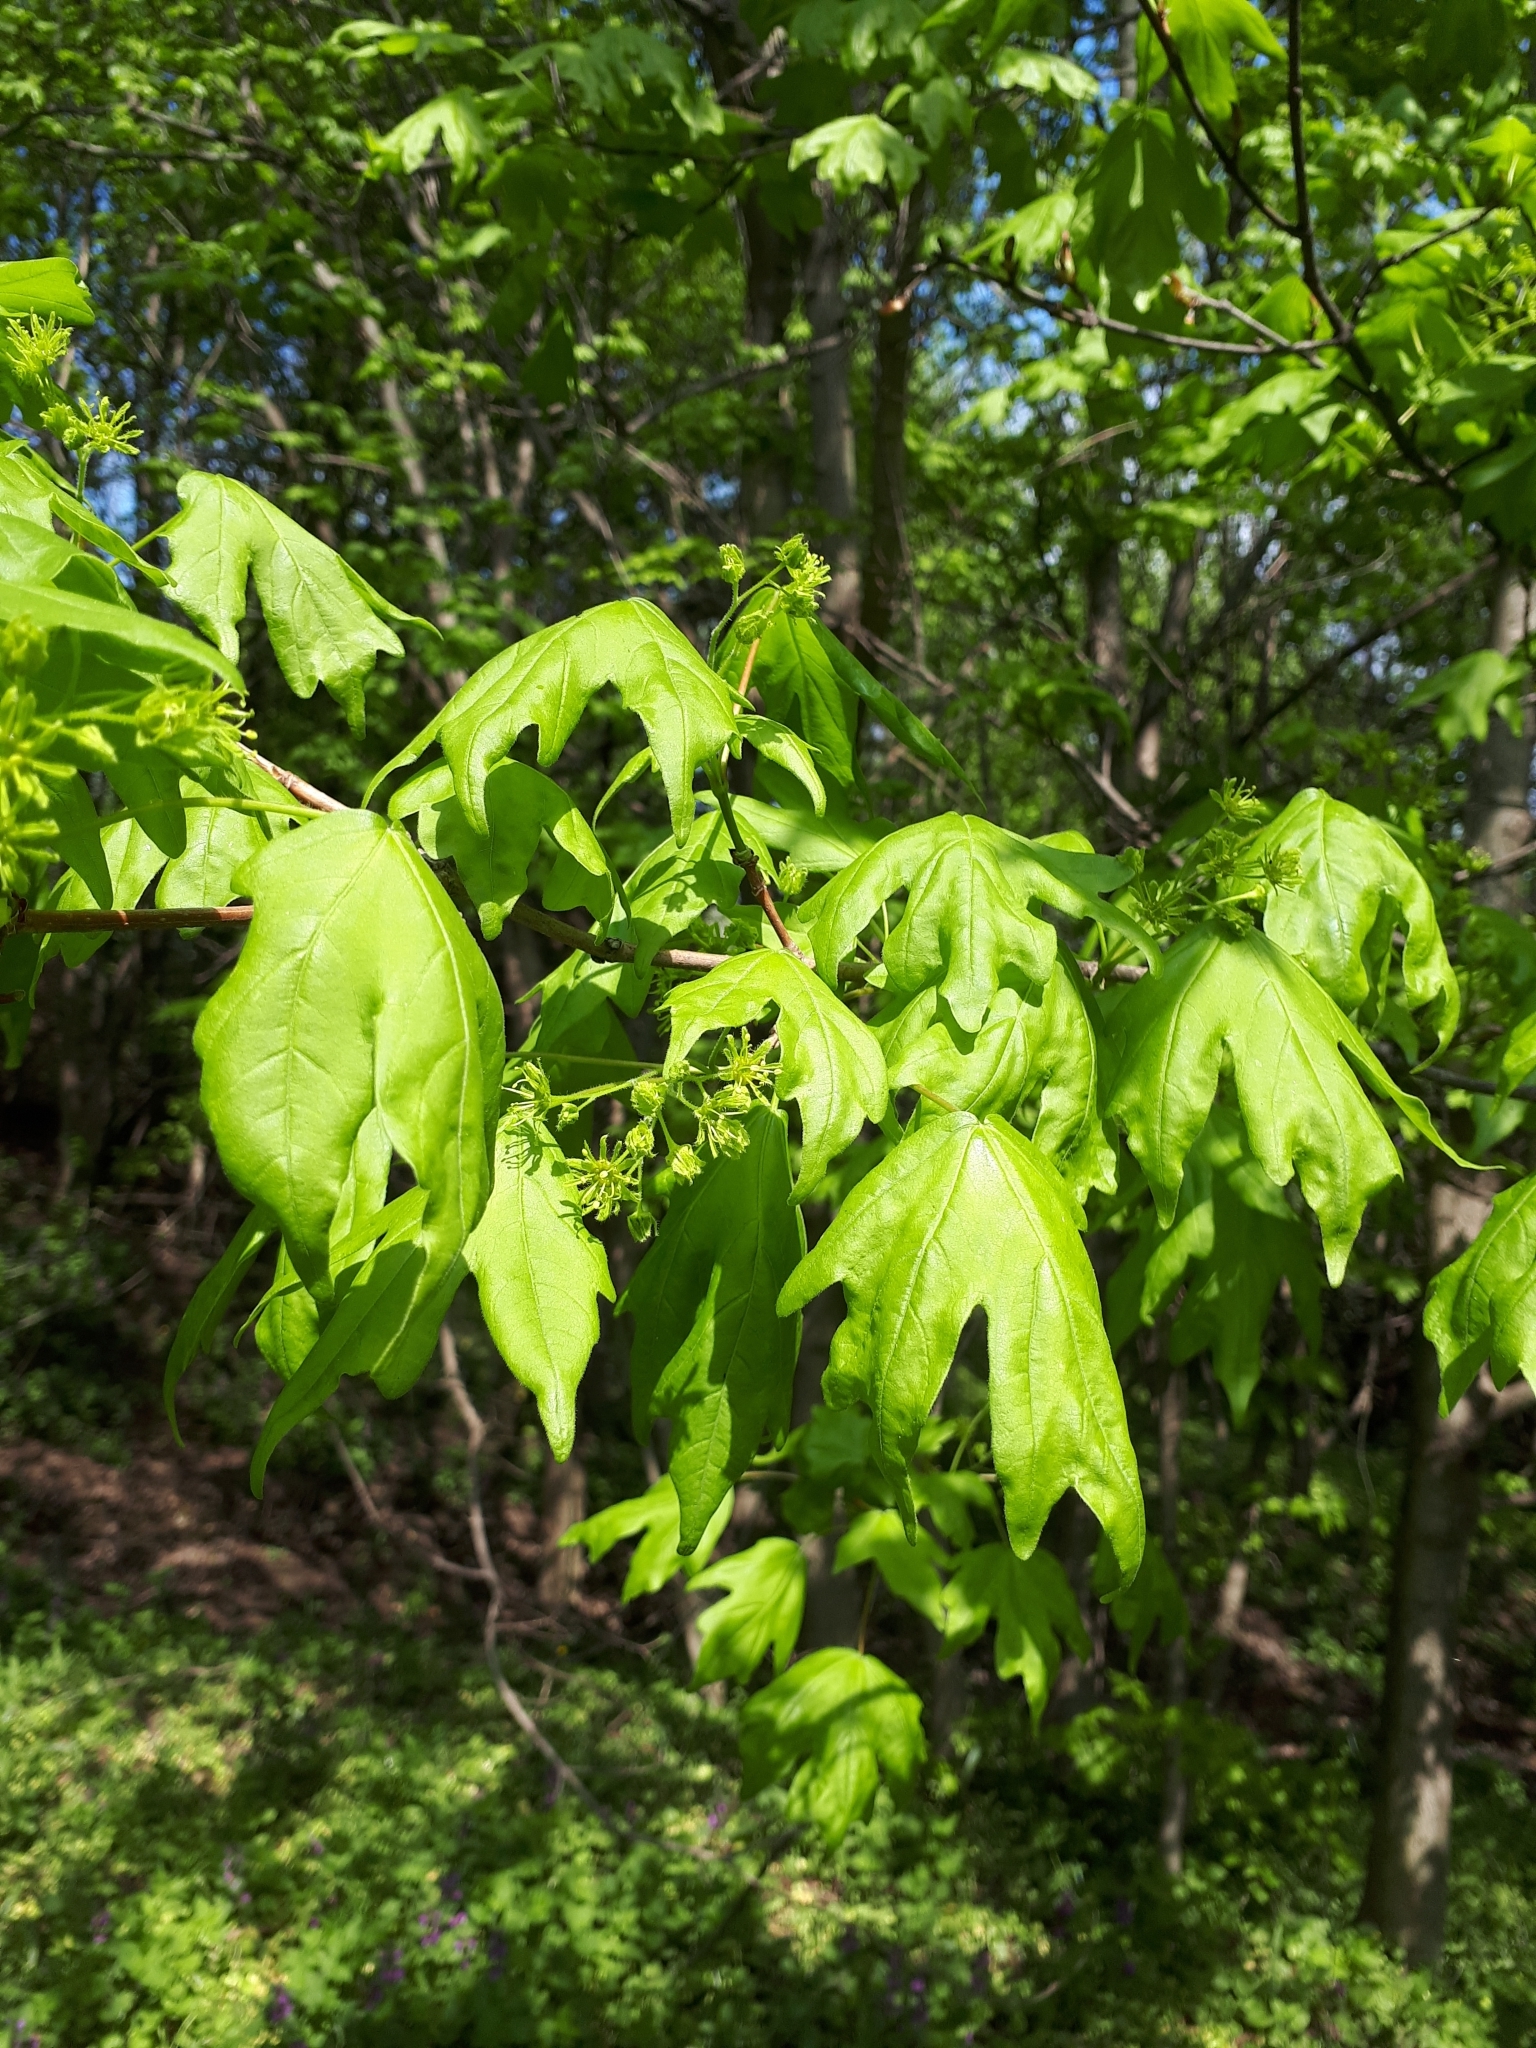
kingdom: Plantae
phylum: Tracheophyta
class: Magnoliopsida
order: Sapindales
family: Sapindaceae
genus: Acer
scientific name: Acer campestre
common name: Field maple
